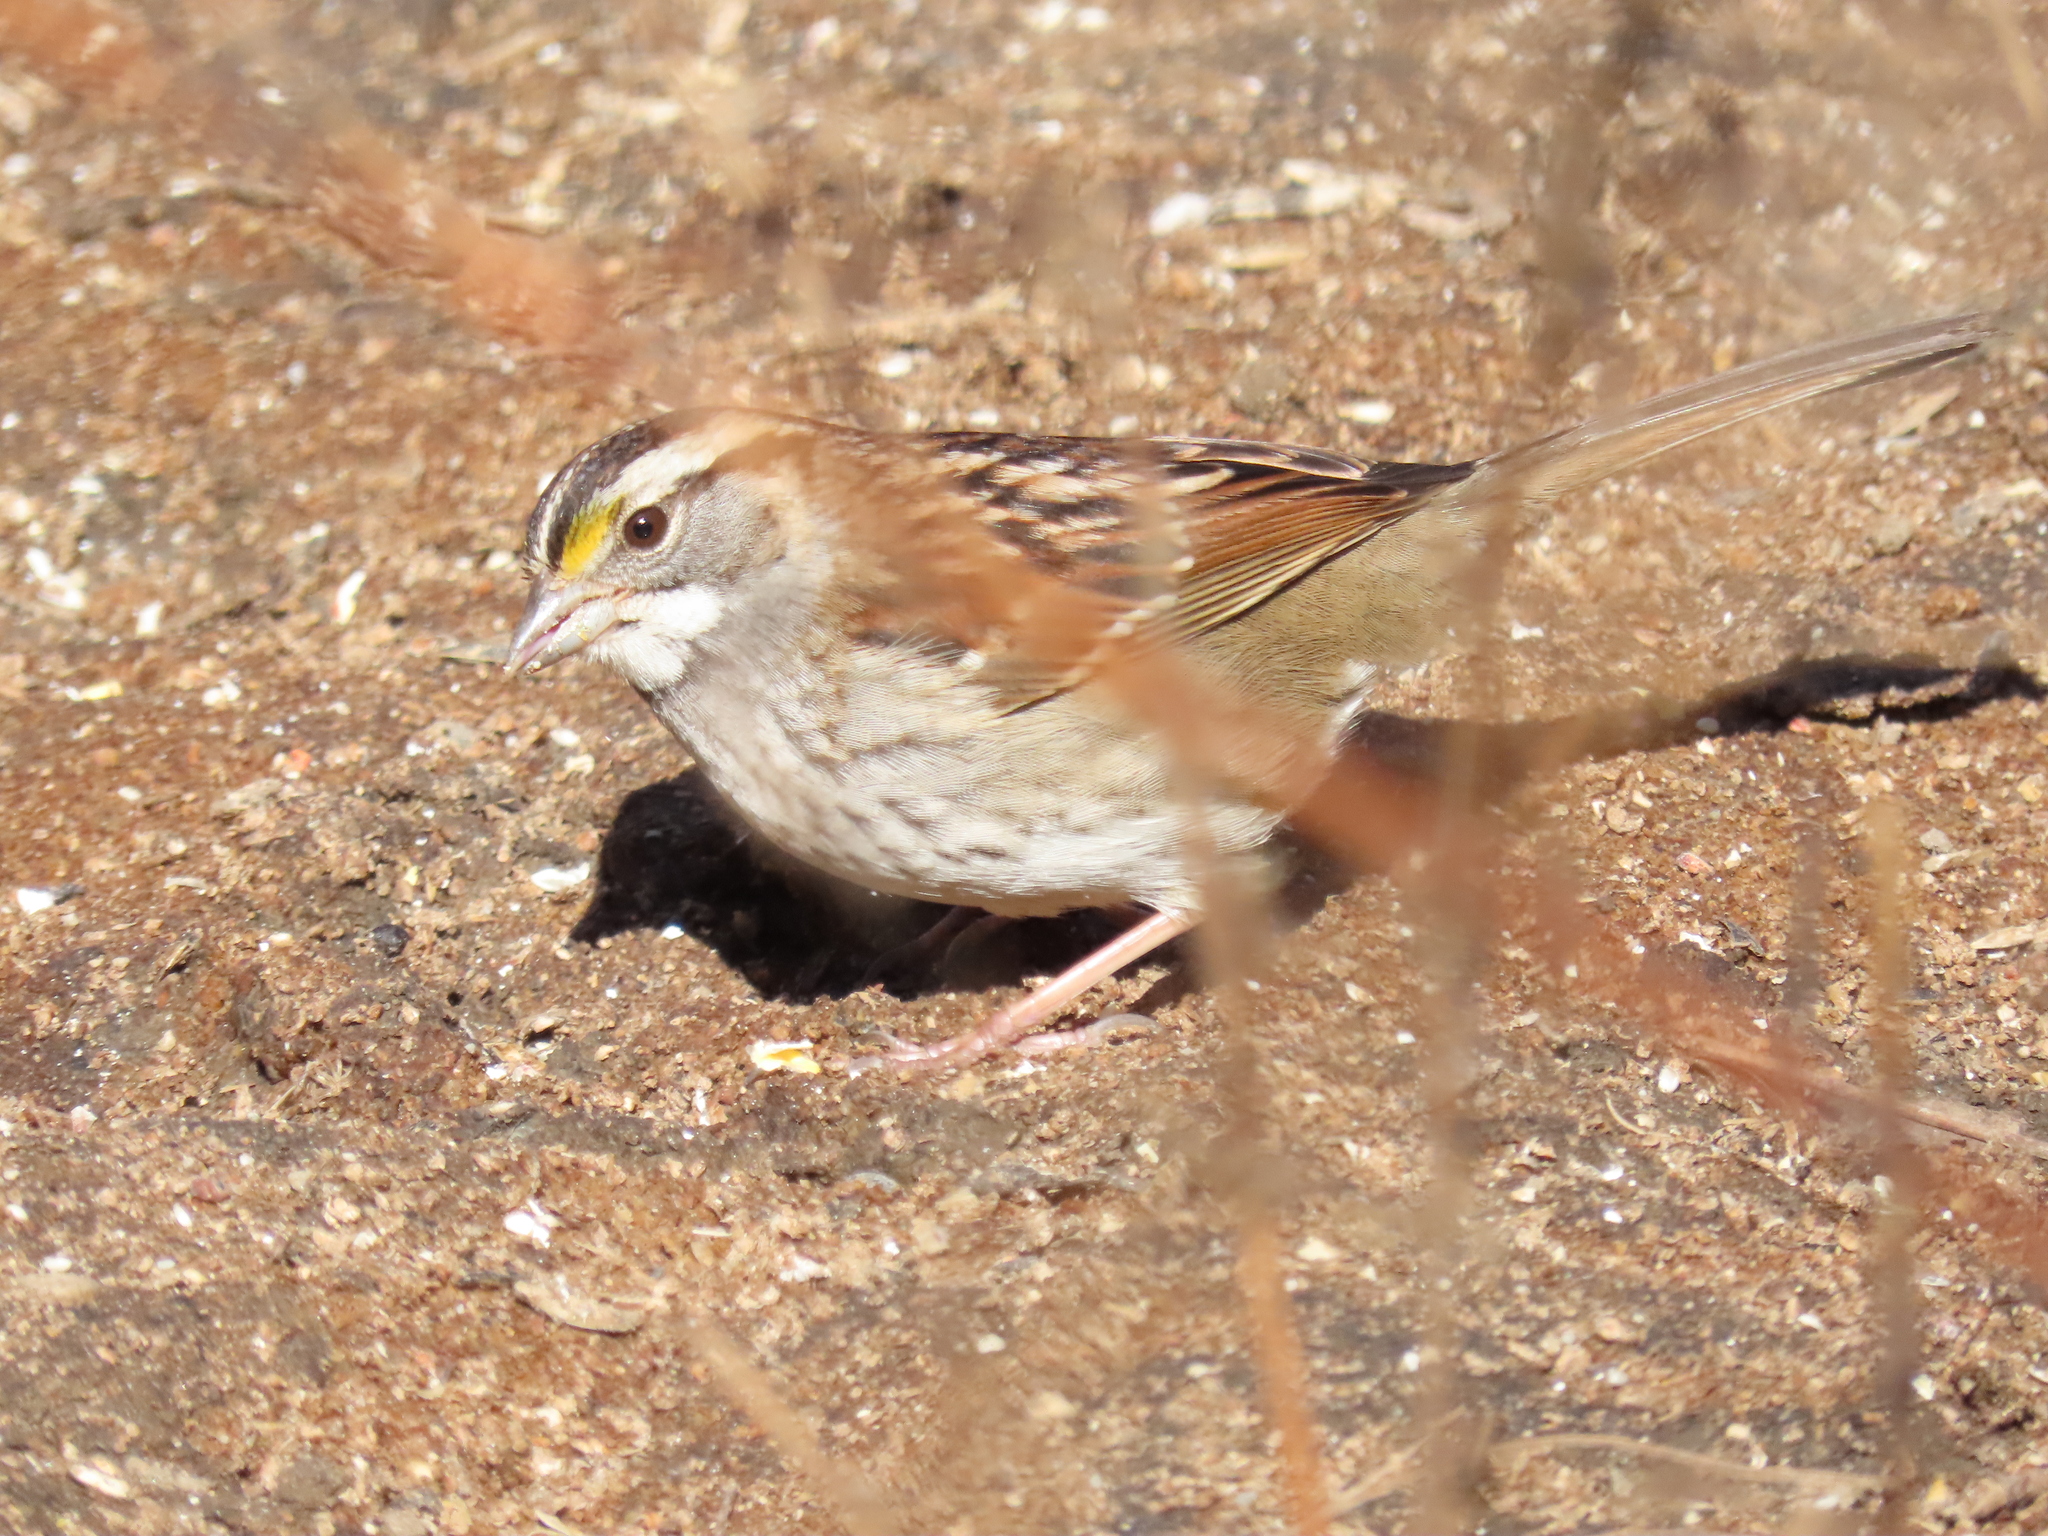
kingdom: Animalia
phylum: Chordata
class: Aves
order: Passeriformes
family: Passerellidae
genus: Zonotrichia
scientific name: Zonotrichia albicollis
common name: White-throated sparrow
